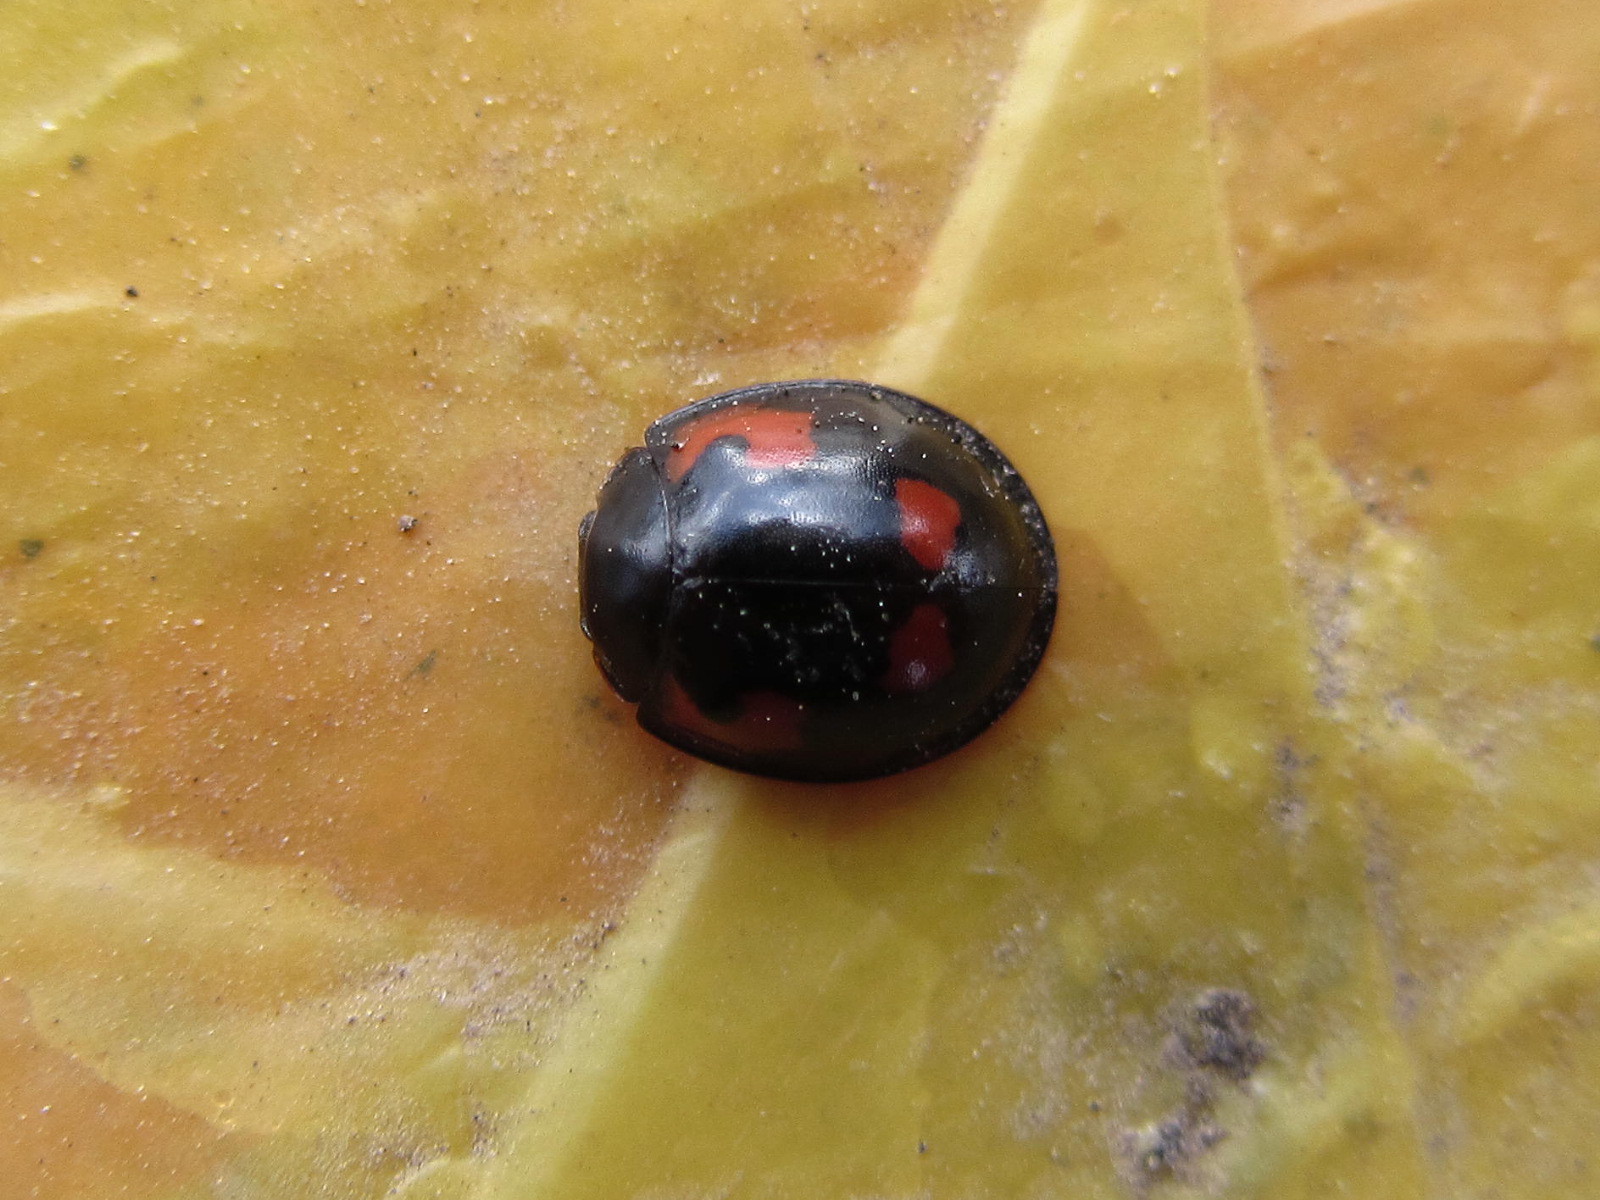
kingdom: Animalia
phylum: Arthropoda
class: Insecta
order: Coleoptera
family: Coccinellidae
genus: Brumus
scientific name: Brumus quadripustulatus
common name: Ladybird beetle
